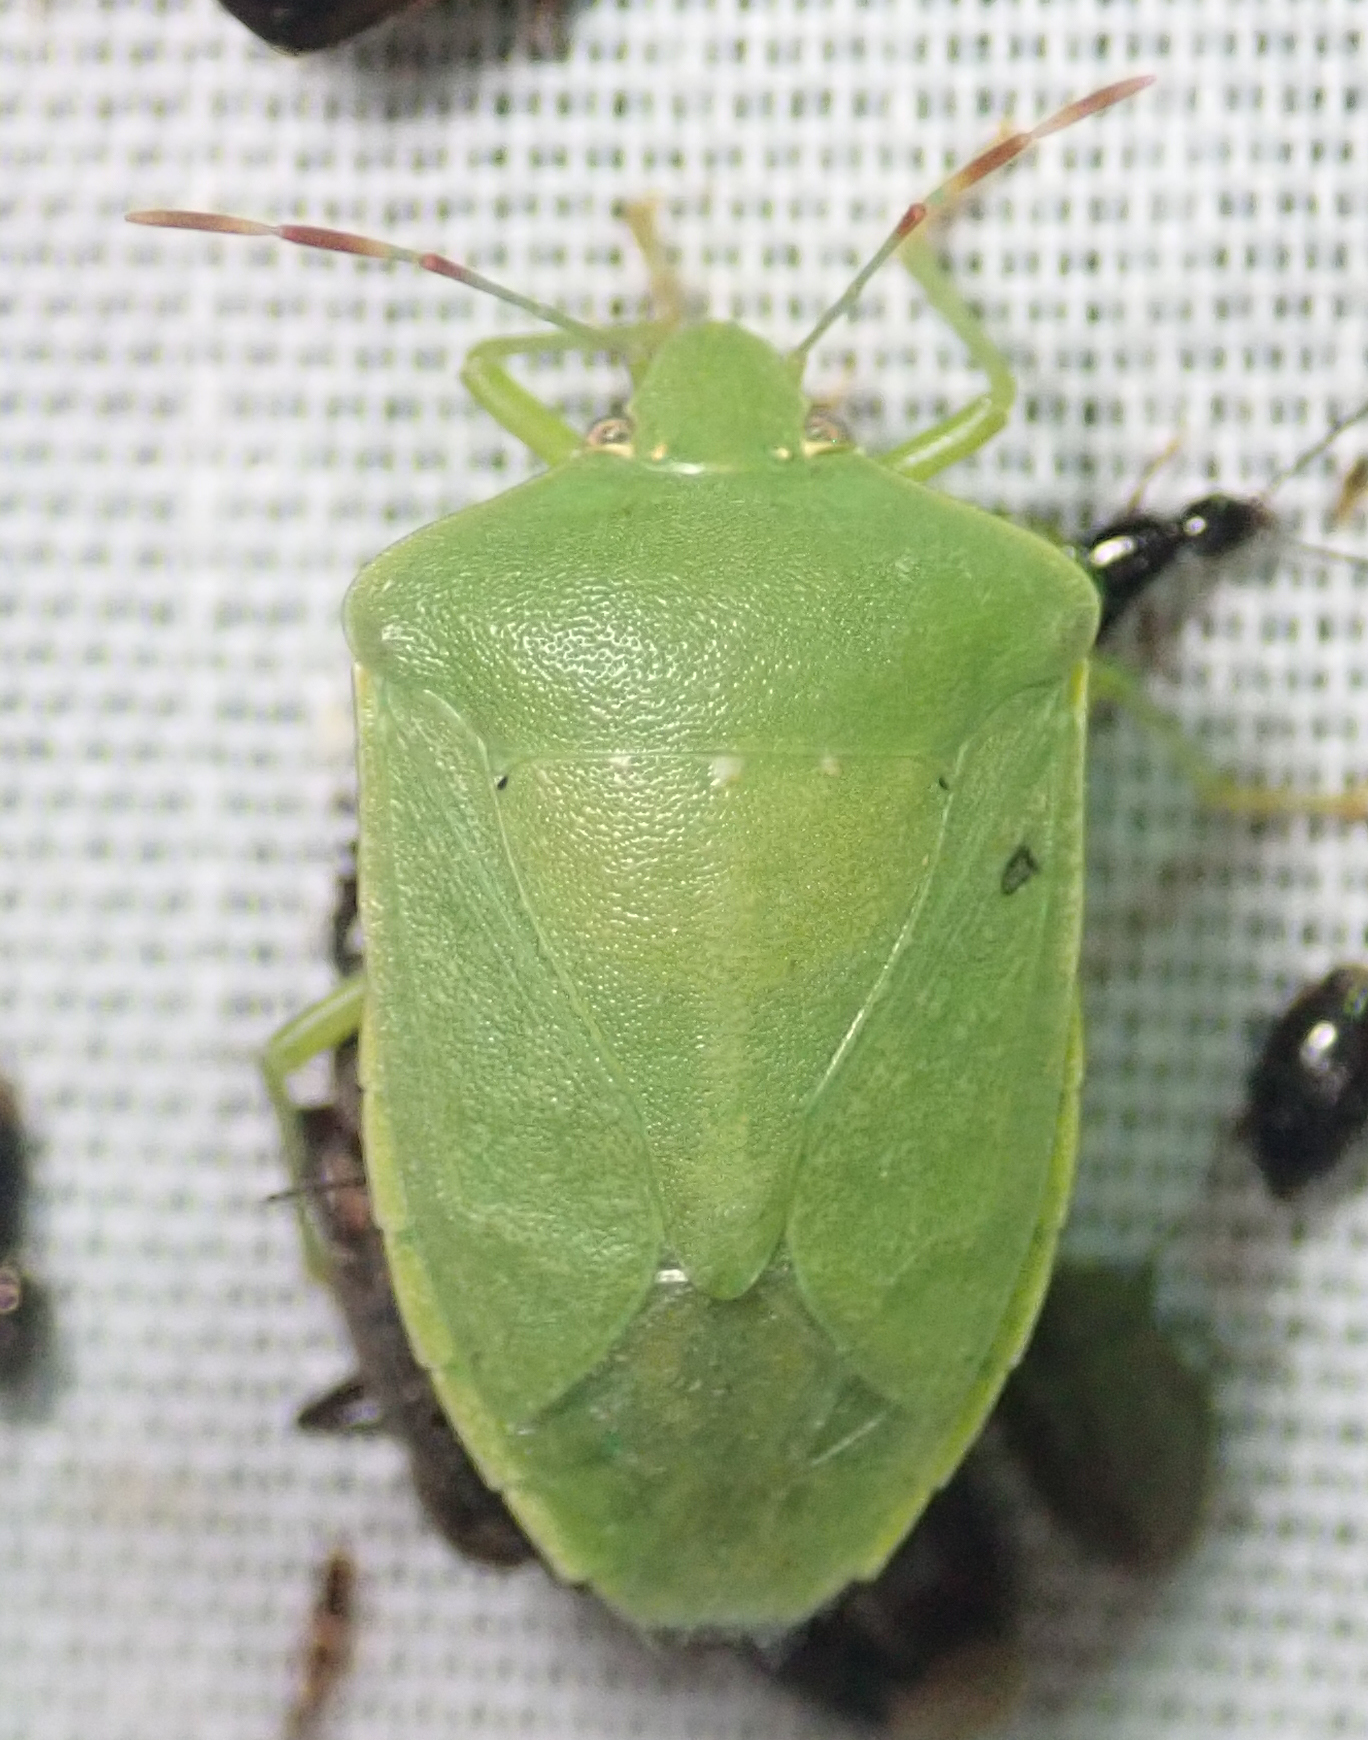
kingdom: Animalia
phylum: Arthropoda
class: Insecta
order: Hemiptera
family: Pentatomidae
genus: Nezara
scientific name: Nezara viridula
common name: Southern green stink bug
